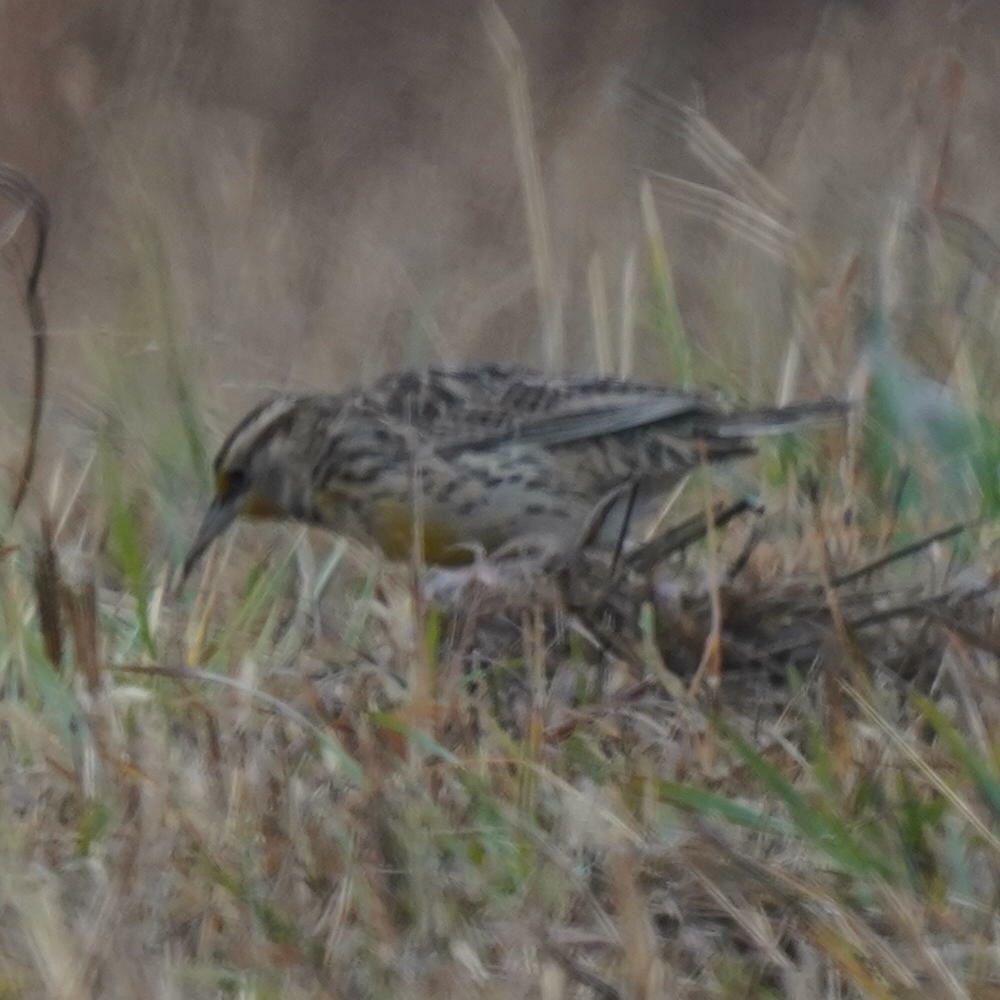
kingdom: Animalia
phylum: Chordata
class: Aves
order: Passeriformes
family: Icteridae
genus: Sturnella
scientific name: Sturnella magna
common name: Eastern meadowlark
